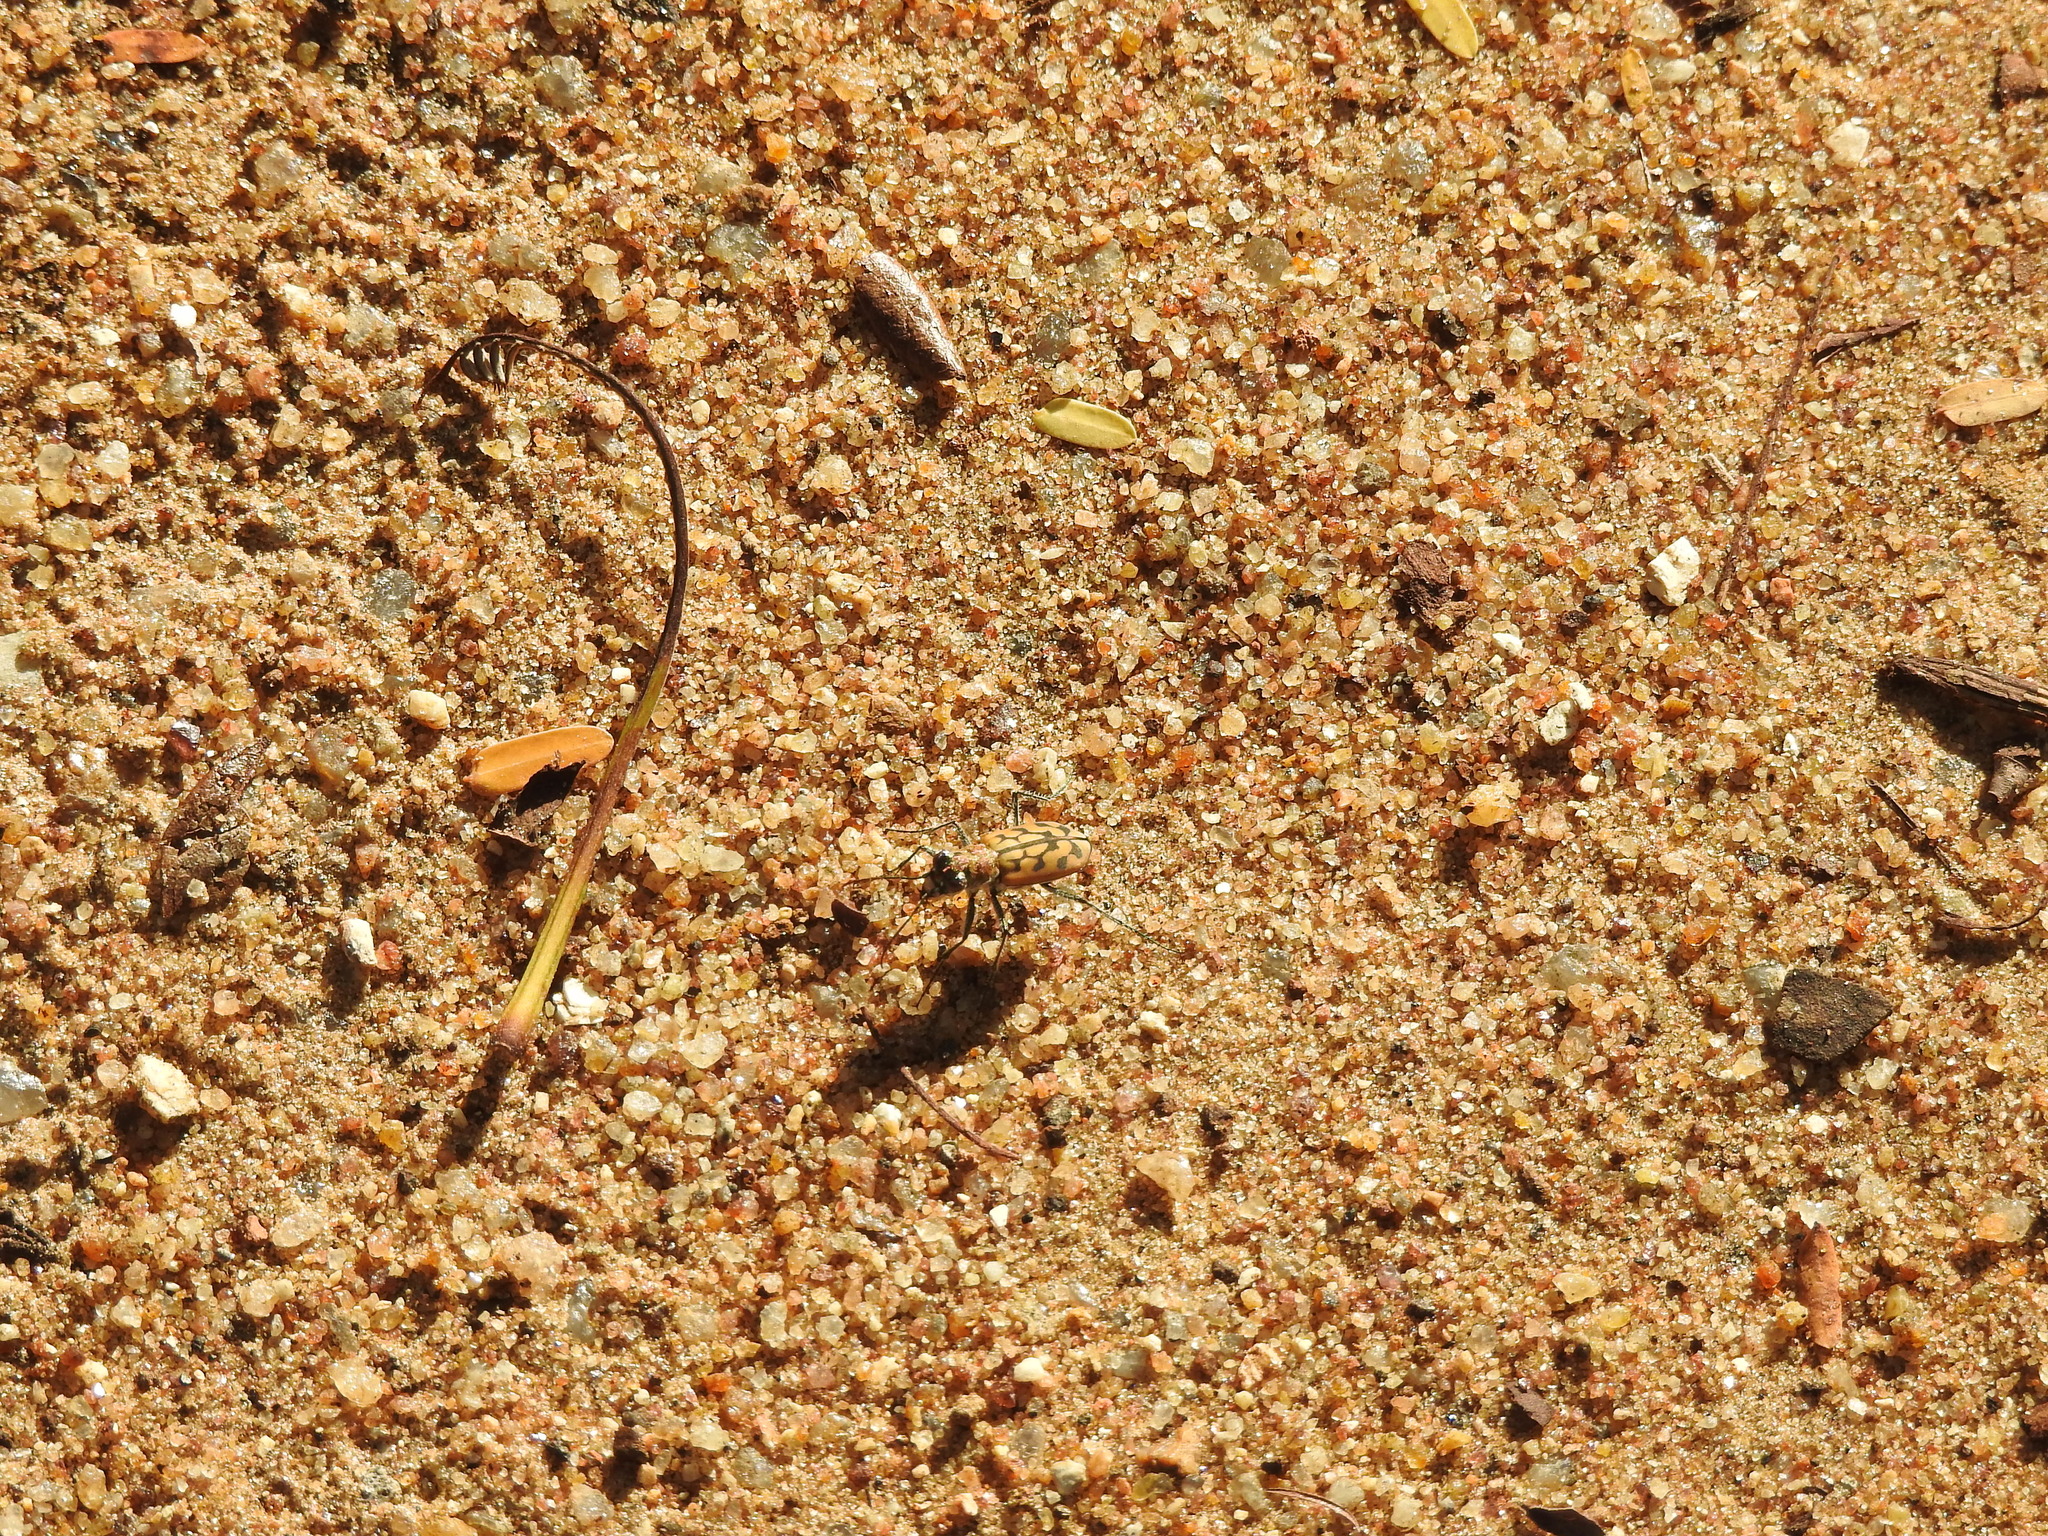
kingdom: Animalia
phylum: Arthropoda
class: Insecta
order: Coleoptera
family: Carabidae
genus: Lophyra
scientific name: Lophyra catena
